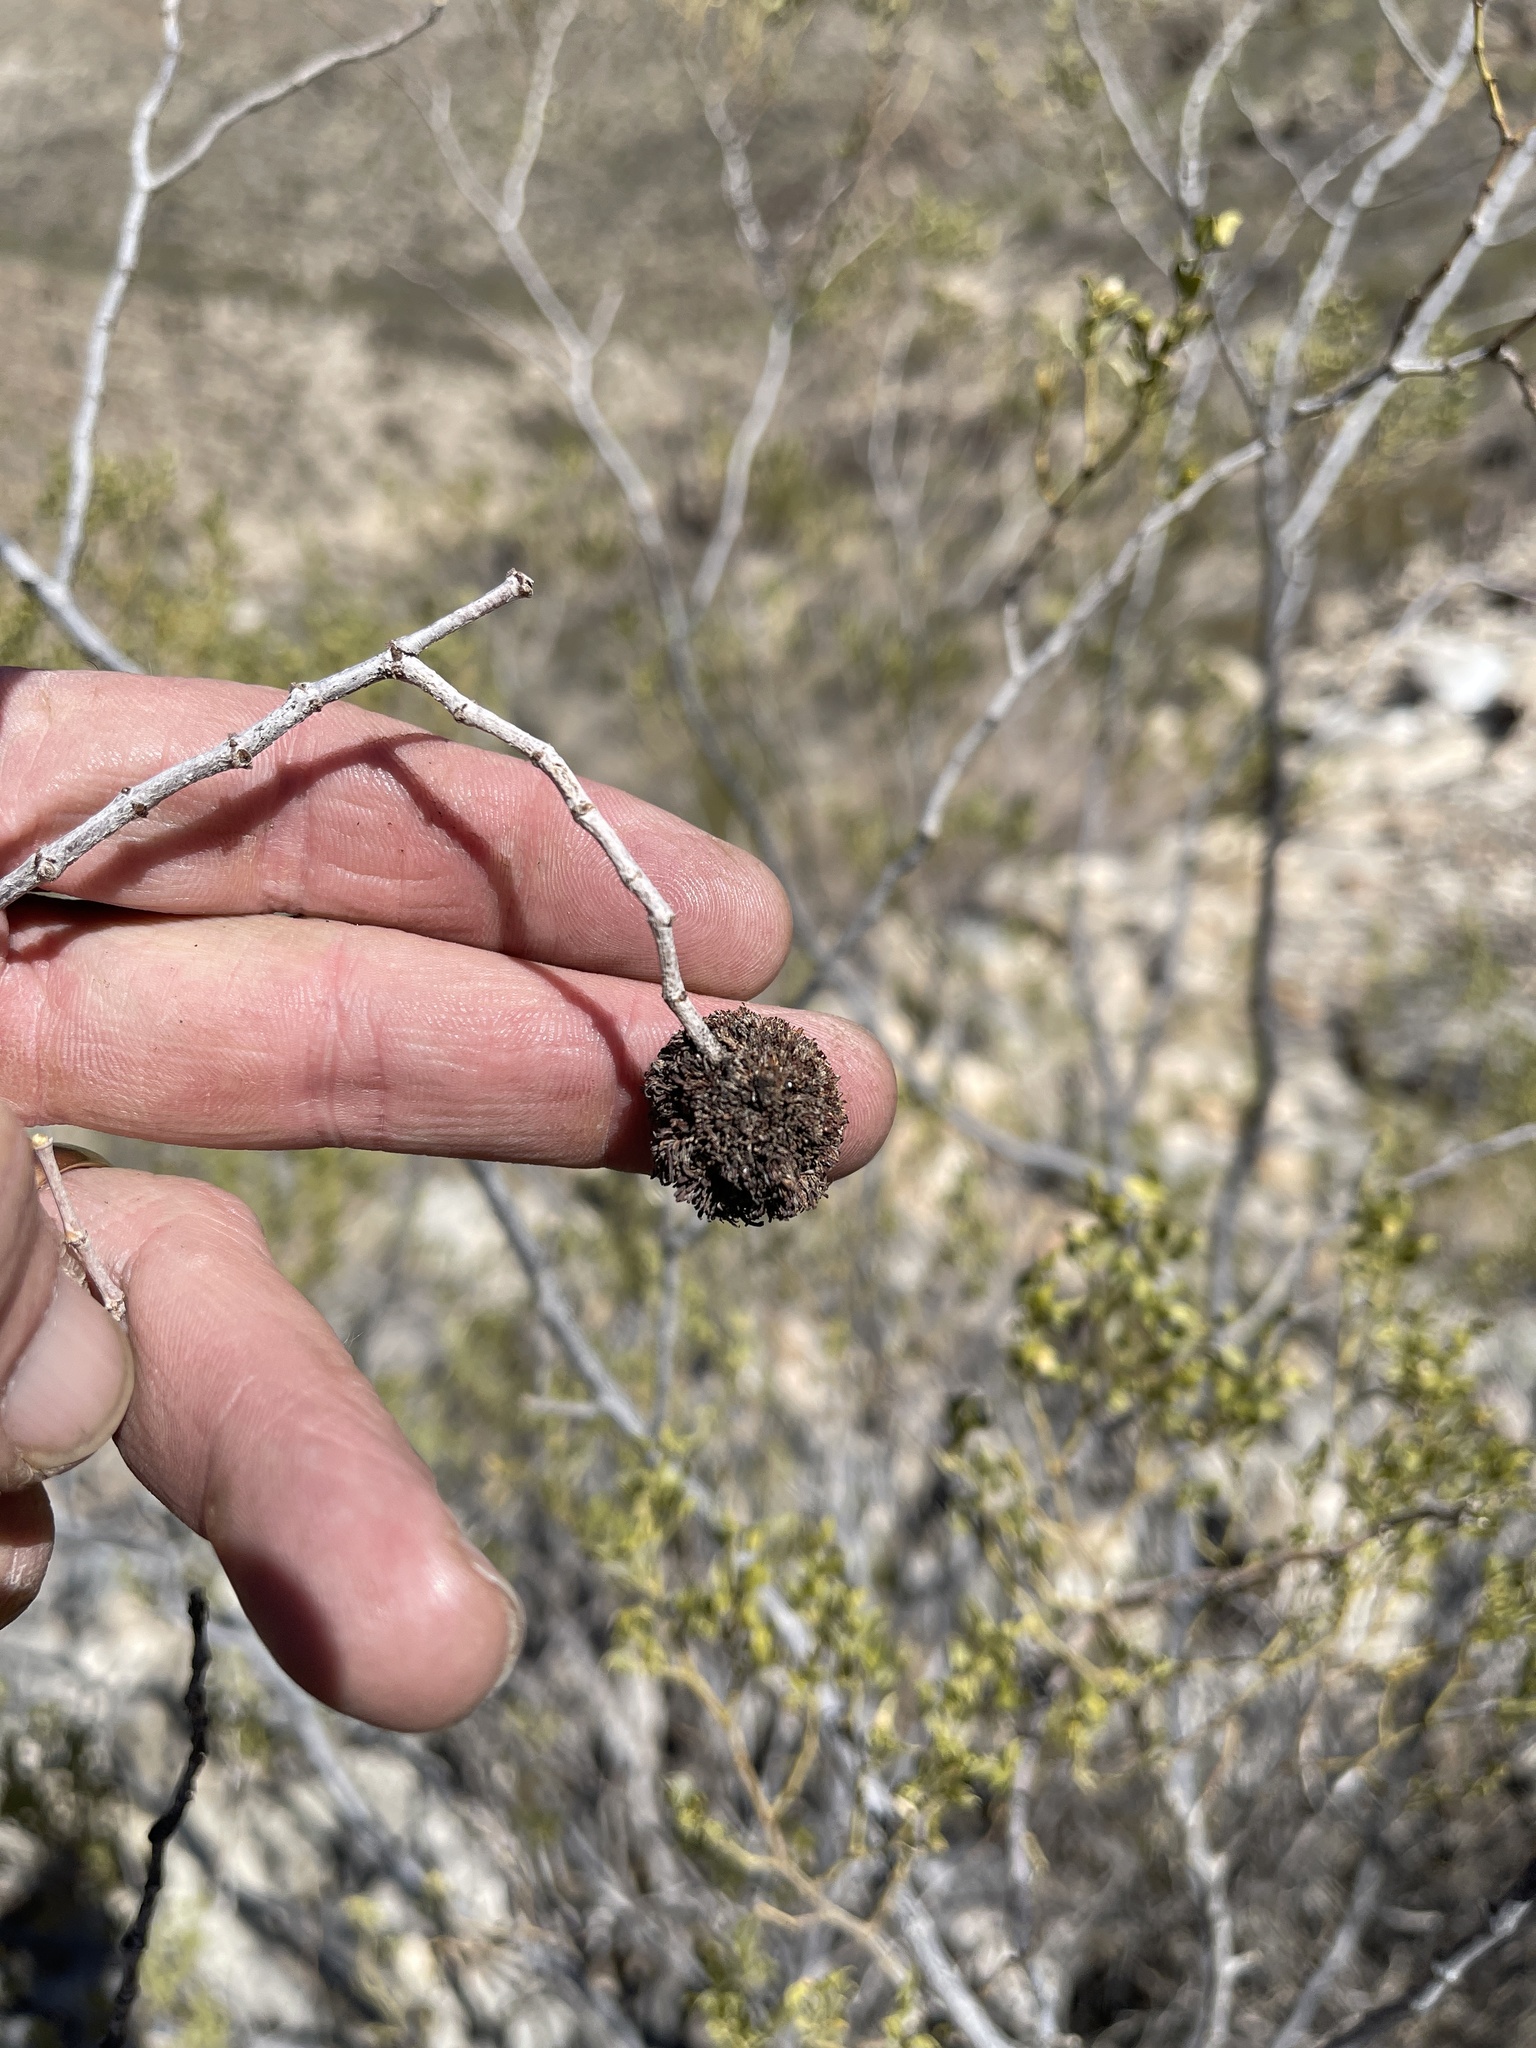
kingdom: Animalia
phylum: Arthropoda
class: Insecta
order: Diptera
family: Cecidomyiidae
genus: Asphondylia
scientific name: Asphondylia auripila
